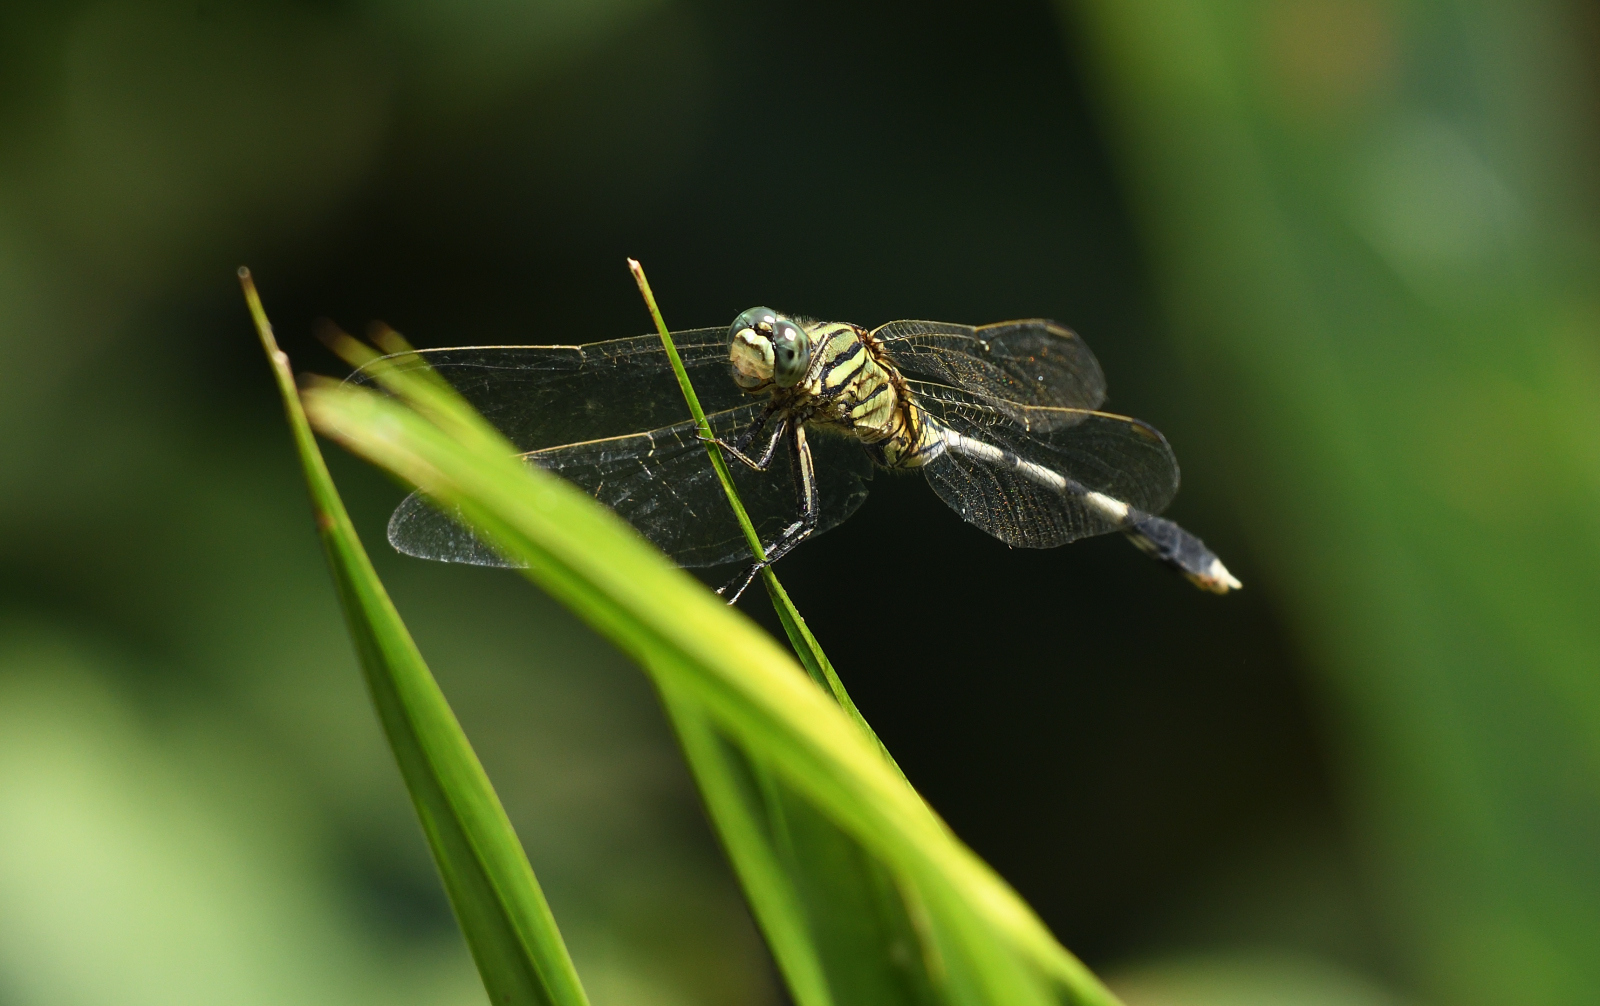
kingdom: Animalia
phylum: Arthropoda
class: Insecta
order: Odonata
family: Libellulidae
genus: Orthetrum
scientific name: Orthetrum sabina
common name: Slender skimmer
